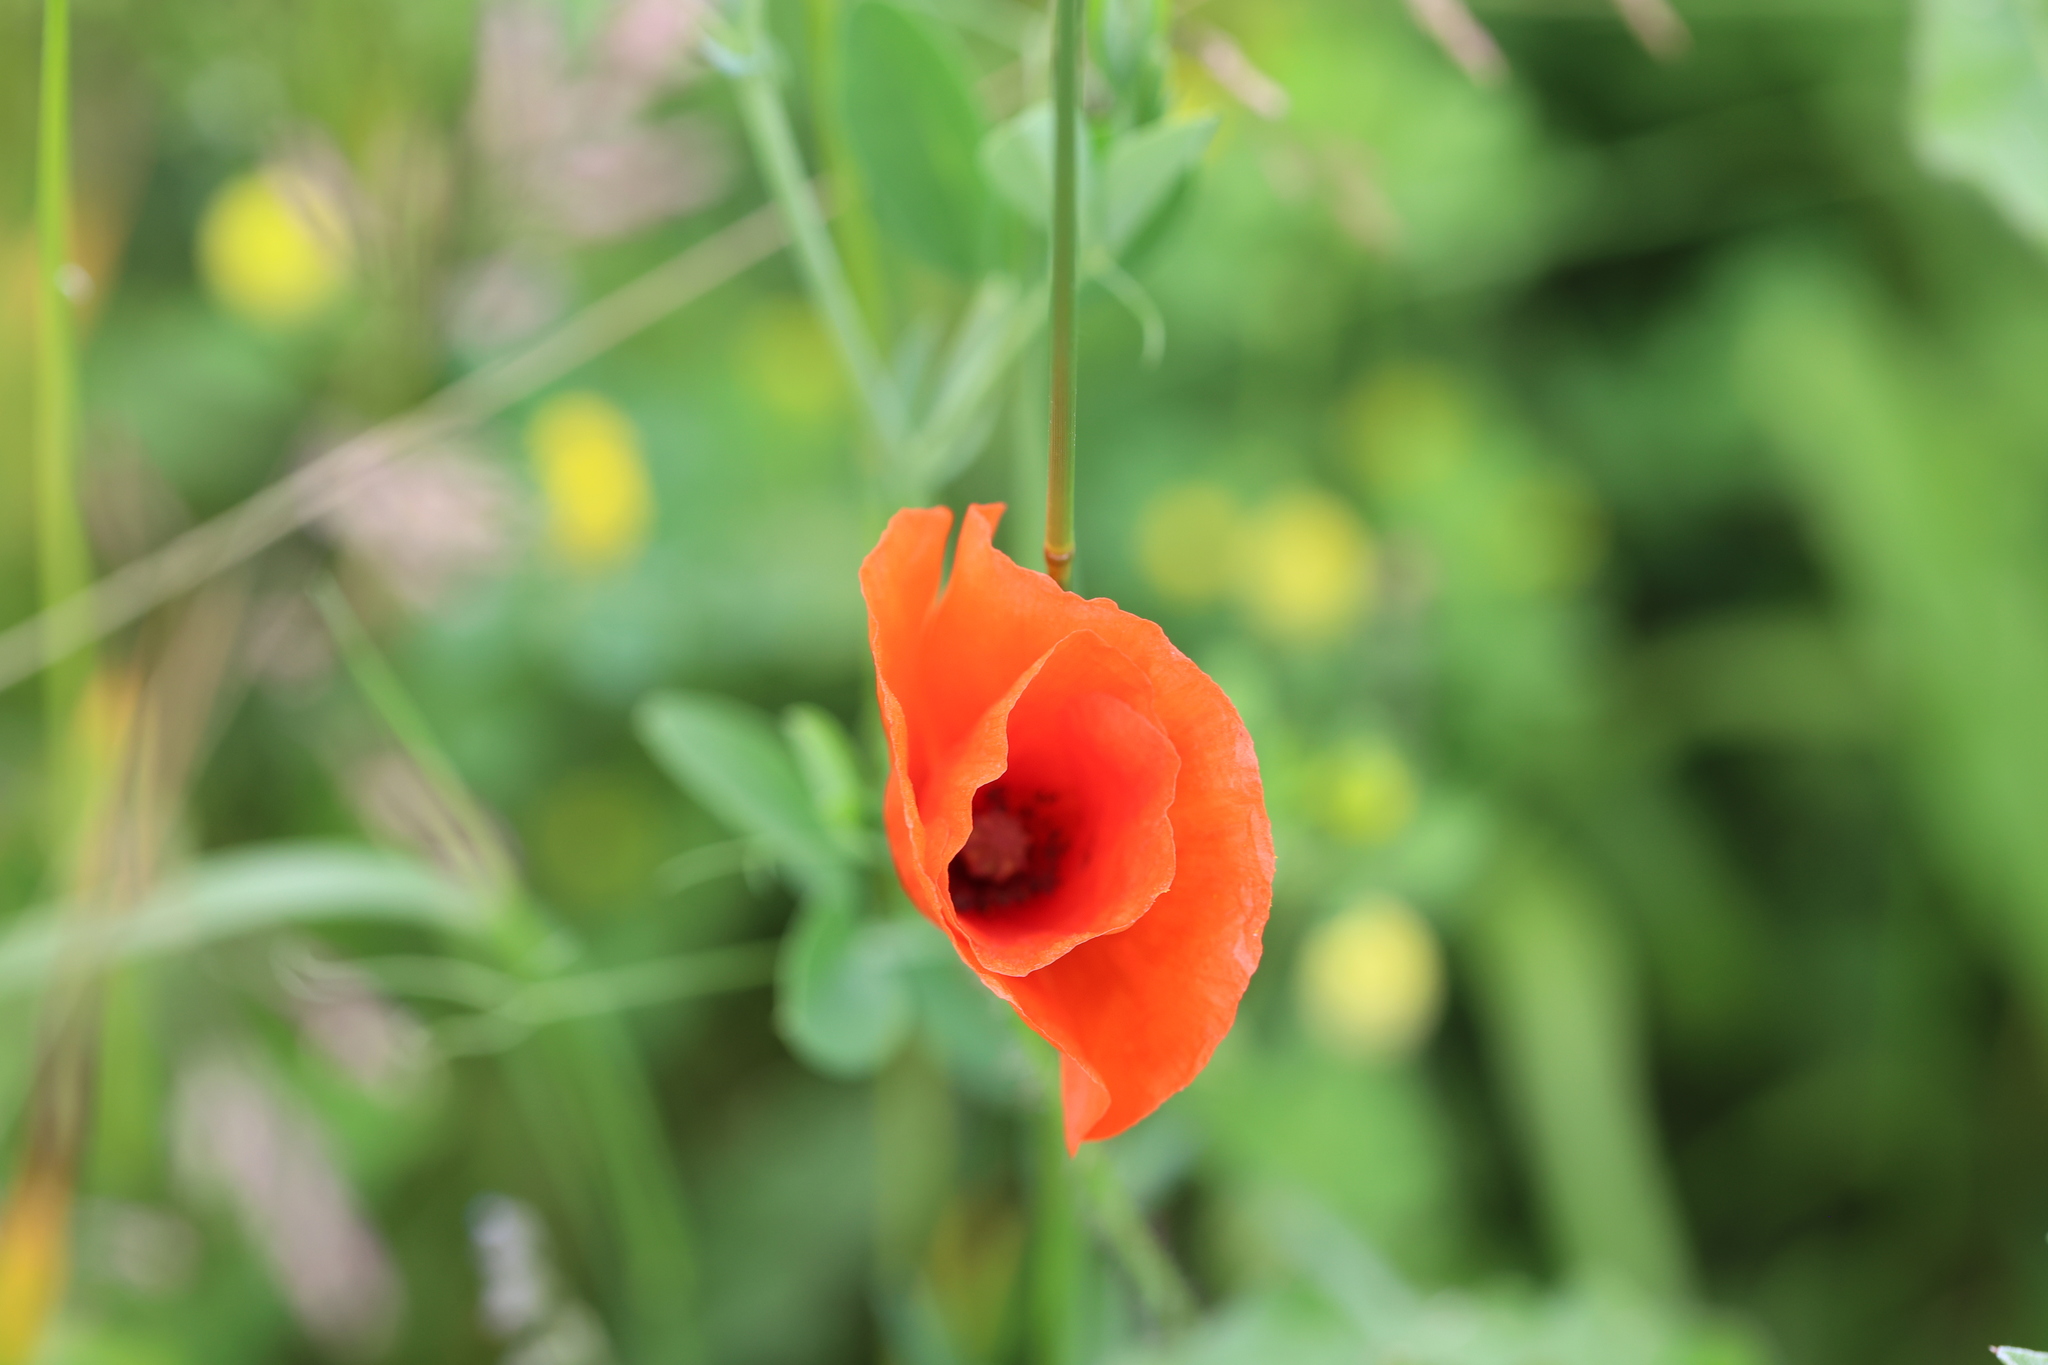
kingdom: Plantae
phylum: Tracheophyta
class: Magnoliopsida
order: Ranunculales
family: Papaveraceae
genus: Papaver
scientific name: Papaver rhoeas
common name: Corn poppy
